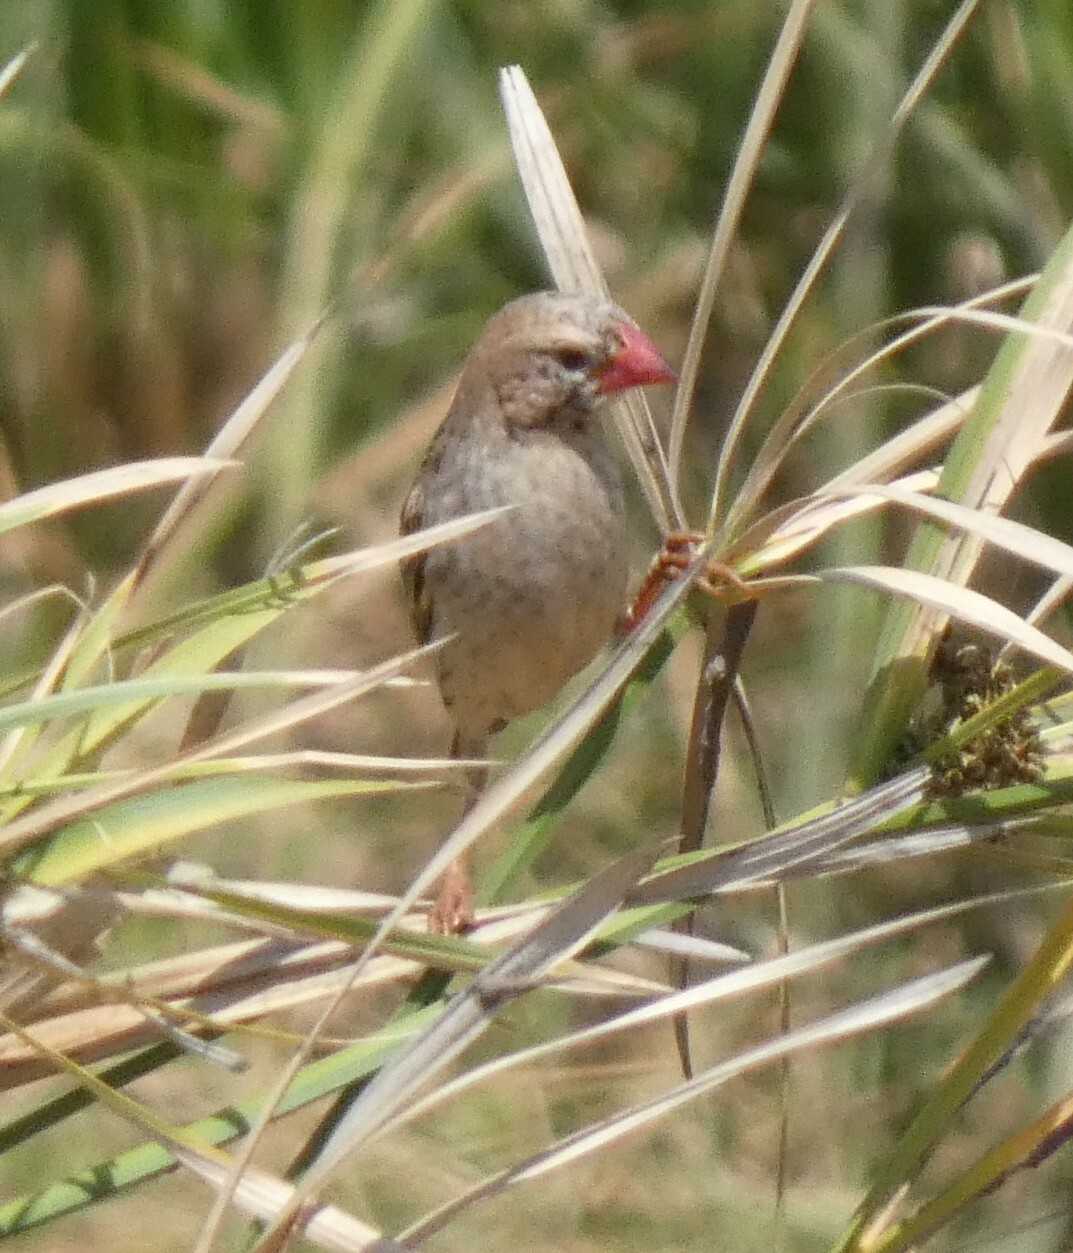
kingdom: Animalia
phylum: Chordata
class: Aves
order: Passeriformes
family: Ploceidae
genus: Quelea
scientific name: Quelea quelea
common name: Red-billed quelea
